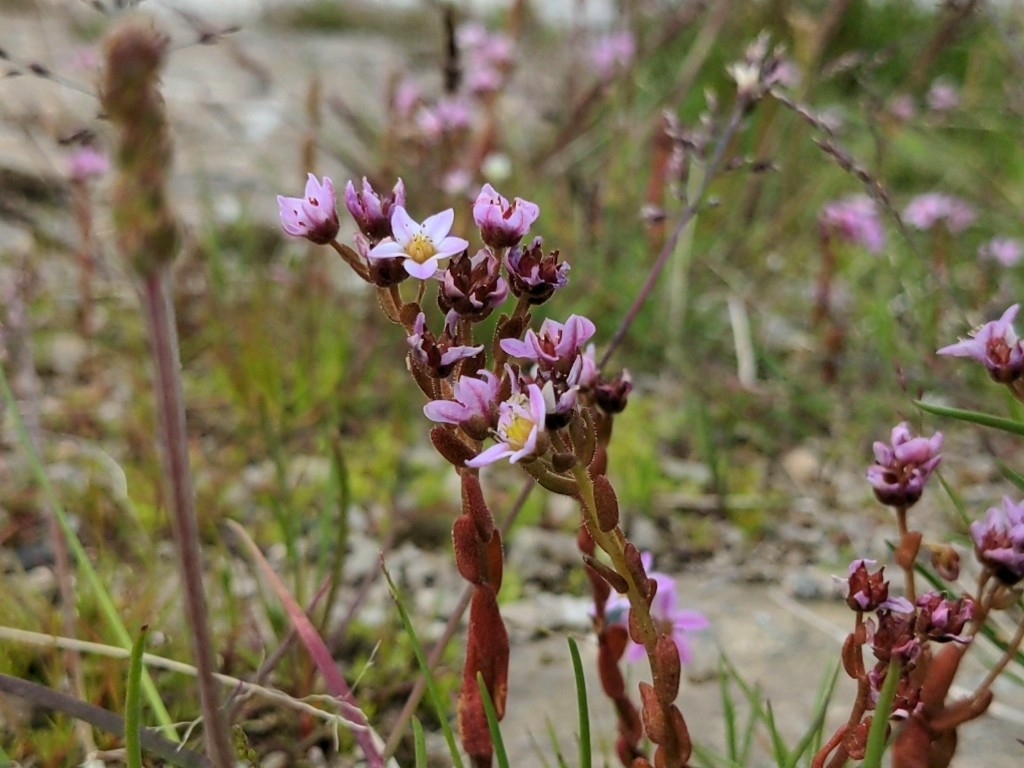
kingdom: Plantae
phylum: Tracheophyta
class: Magnoliopsida
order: Saxifragales
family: Crassulaceae
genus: Sedum
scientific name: Sedum villosum
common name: Hairy stonecrop
